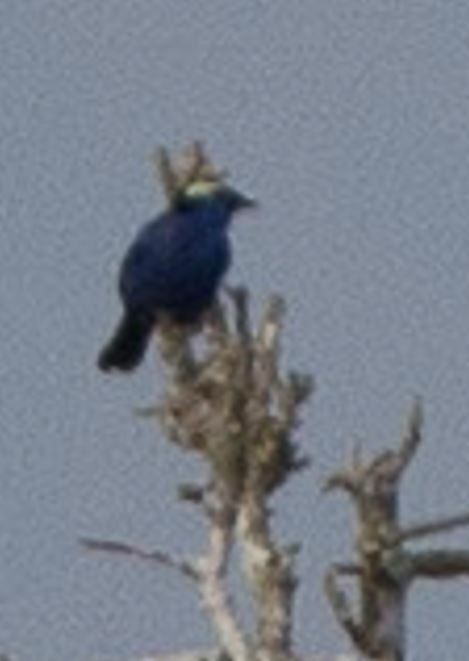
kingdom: Animalia
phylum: Chordata
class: Aves
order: Passeriformes
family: Thraupidae
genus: Tangara
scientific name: Tangara callophrys
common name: Opal-crowned tanager
